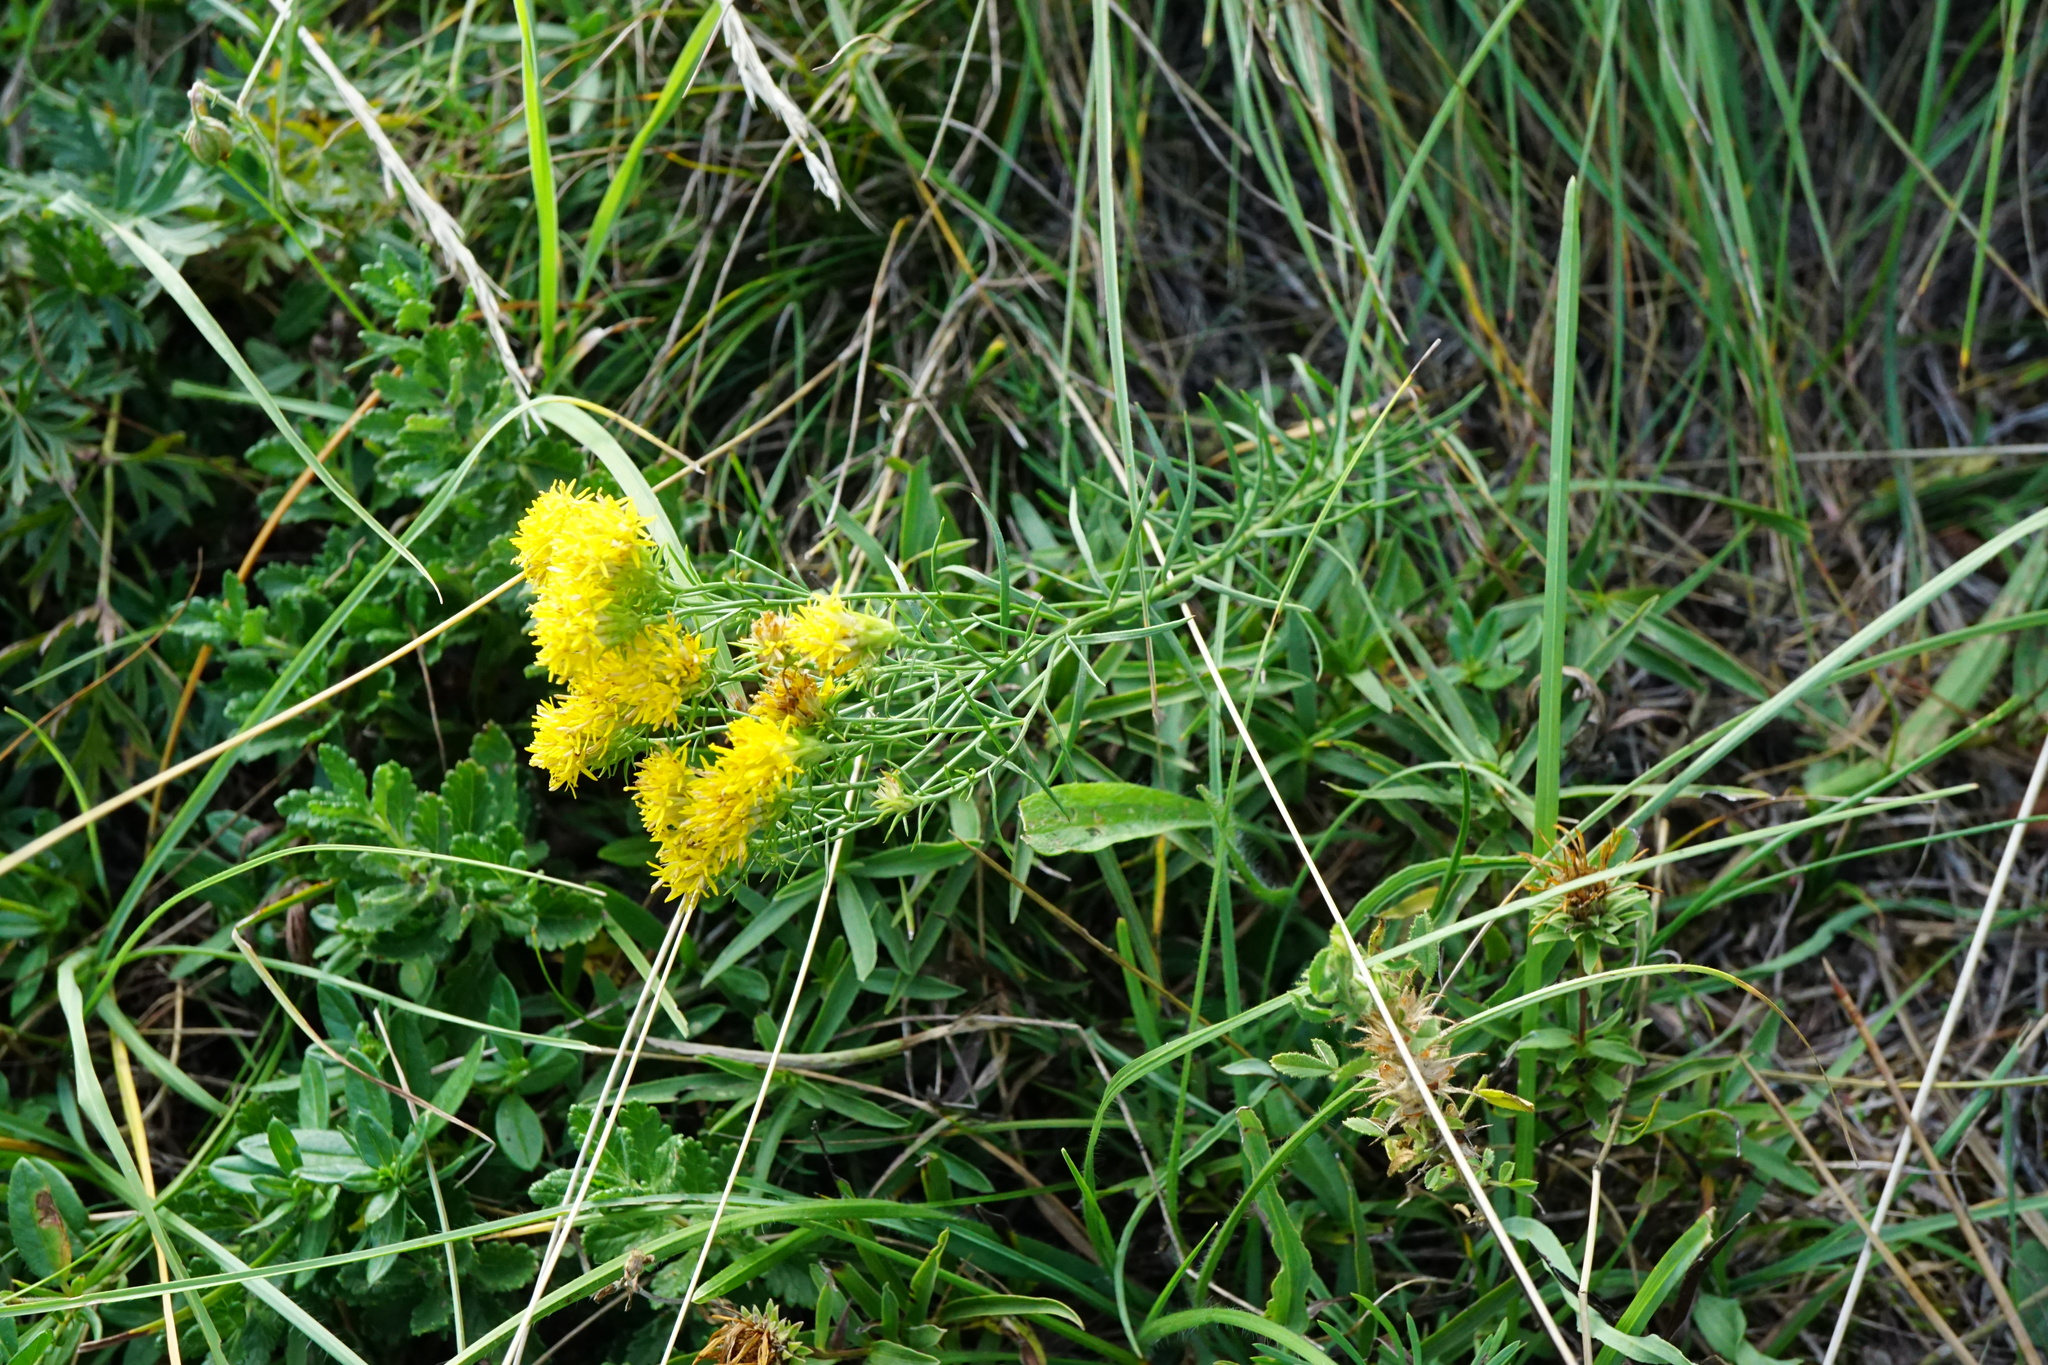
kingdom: Plantae
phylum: Tracheophyta
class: Magnoliopsida
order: Asterales
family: Asteraceae
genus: Galatella
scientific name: Galatella linosyris
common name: Goldilocks aster
